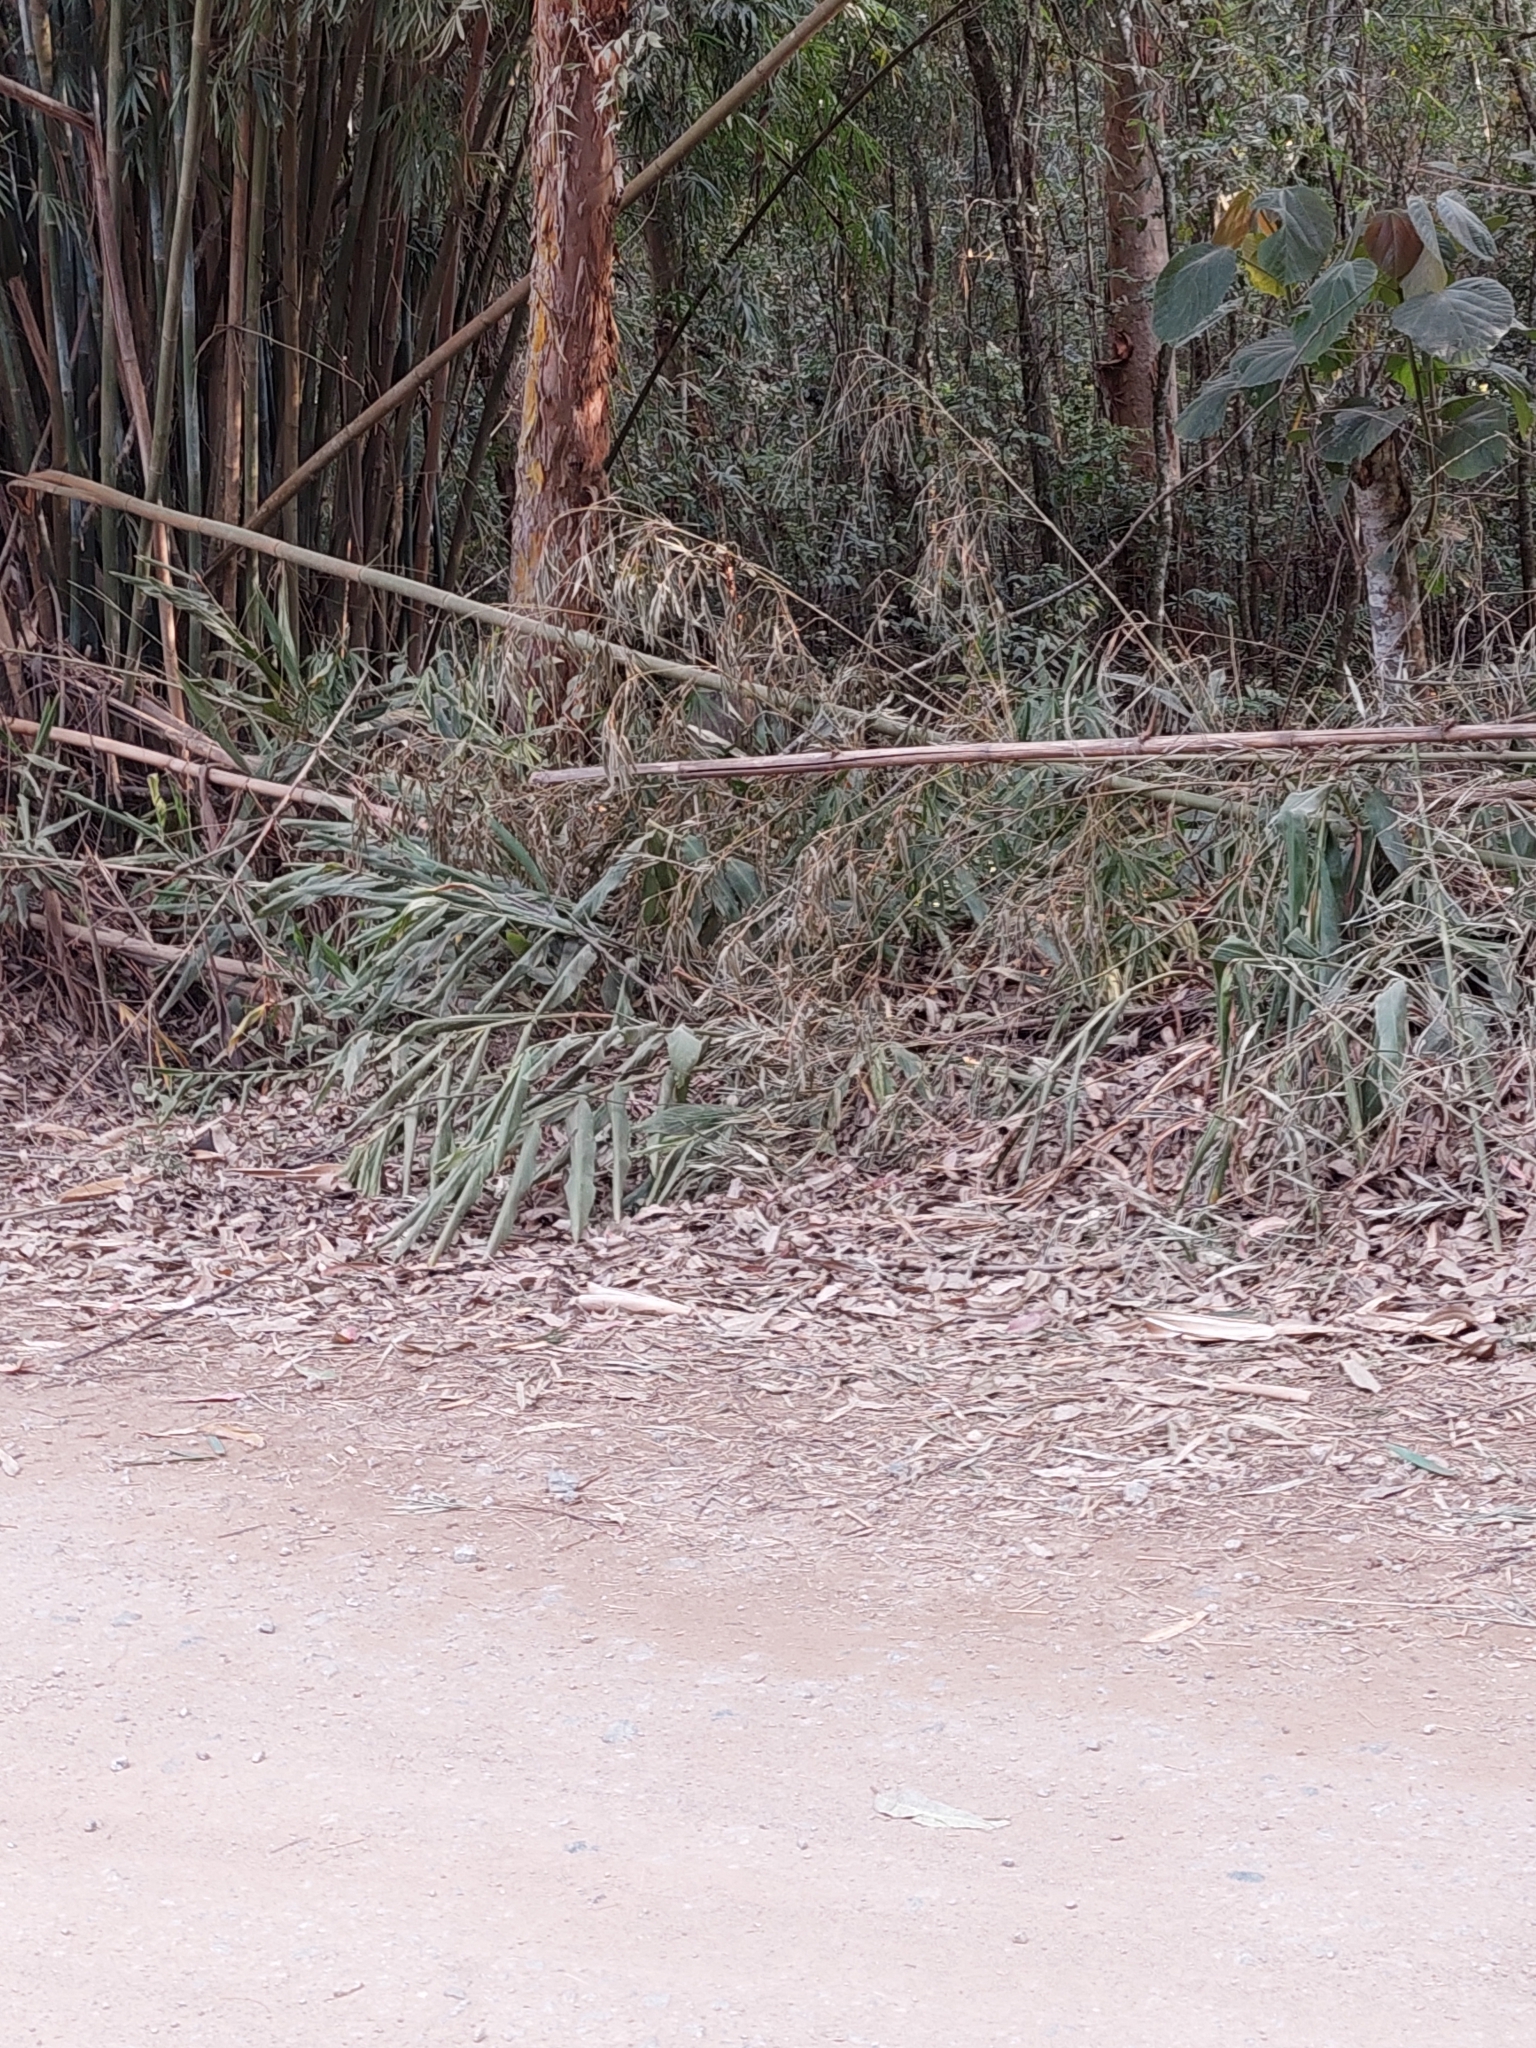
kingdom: Plantae
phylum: Tracheophyta
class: Liliopsida
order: Zingiberales
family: Zingiberaceae
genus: Hedychium
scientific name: Hedychium coronarium
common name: White garland-lily
